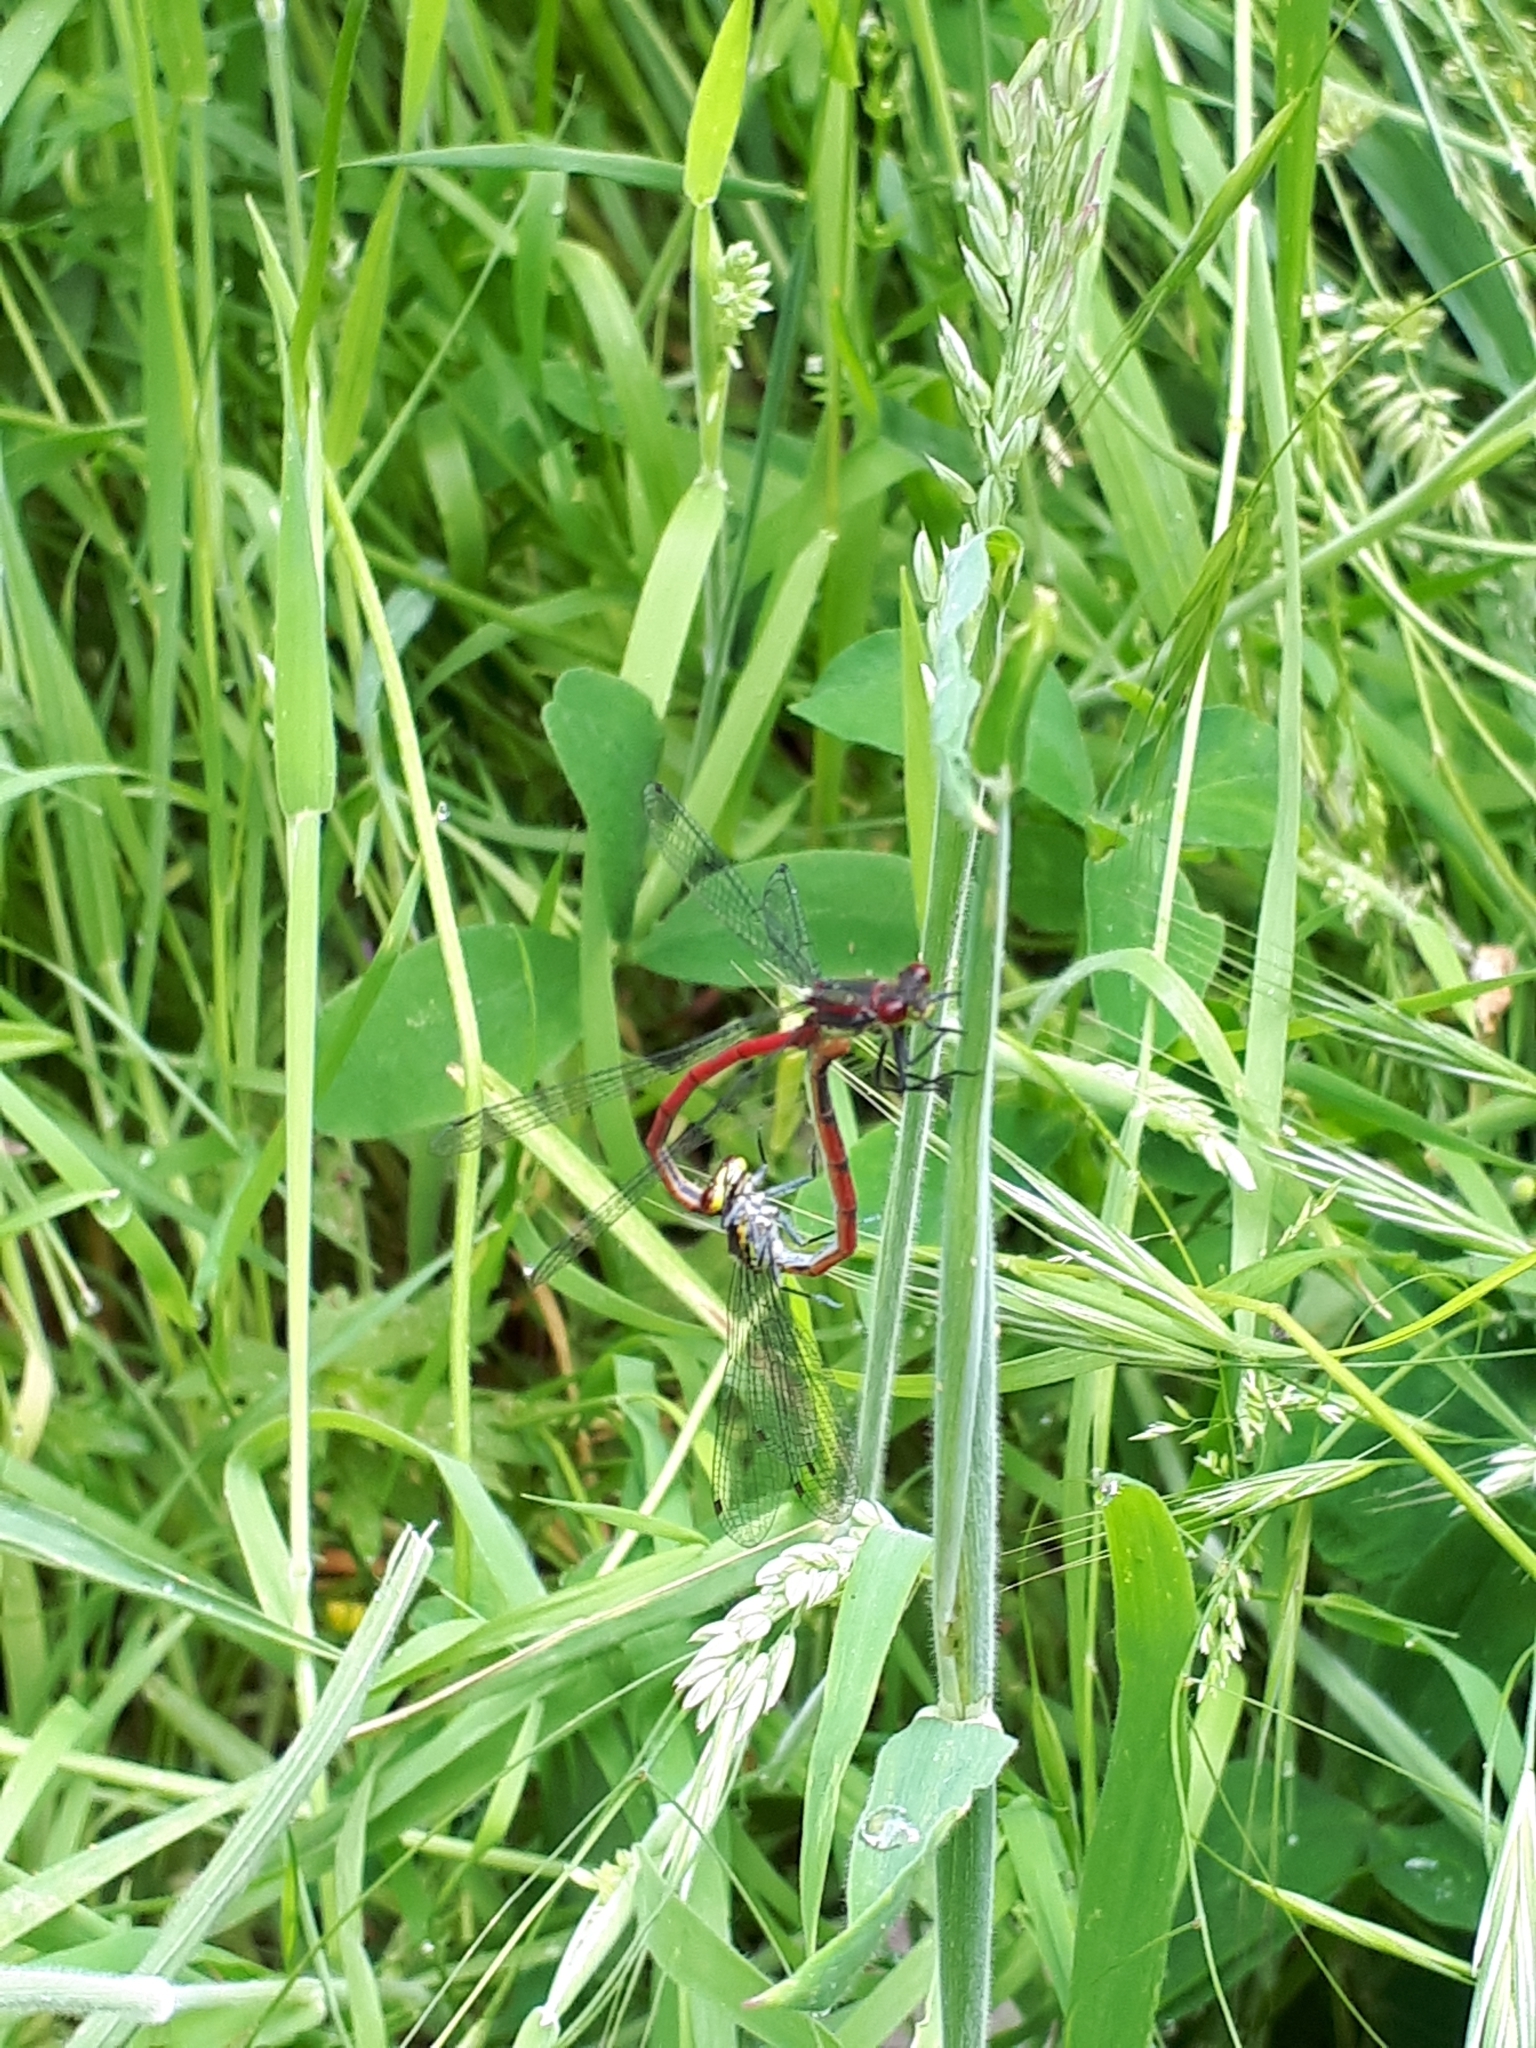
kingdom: Animalia
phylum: Arthropoda
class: Insecta
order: Odonata
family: Coenagrionidae
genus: Pyrrhosoma
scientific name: Pyrrhosoma nymphula
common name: Large red damsel
